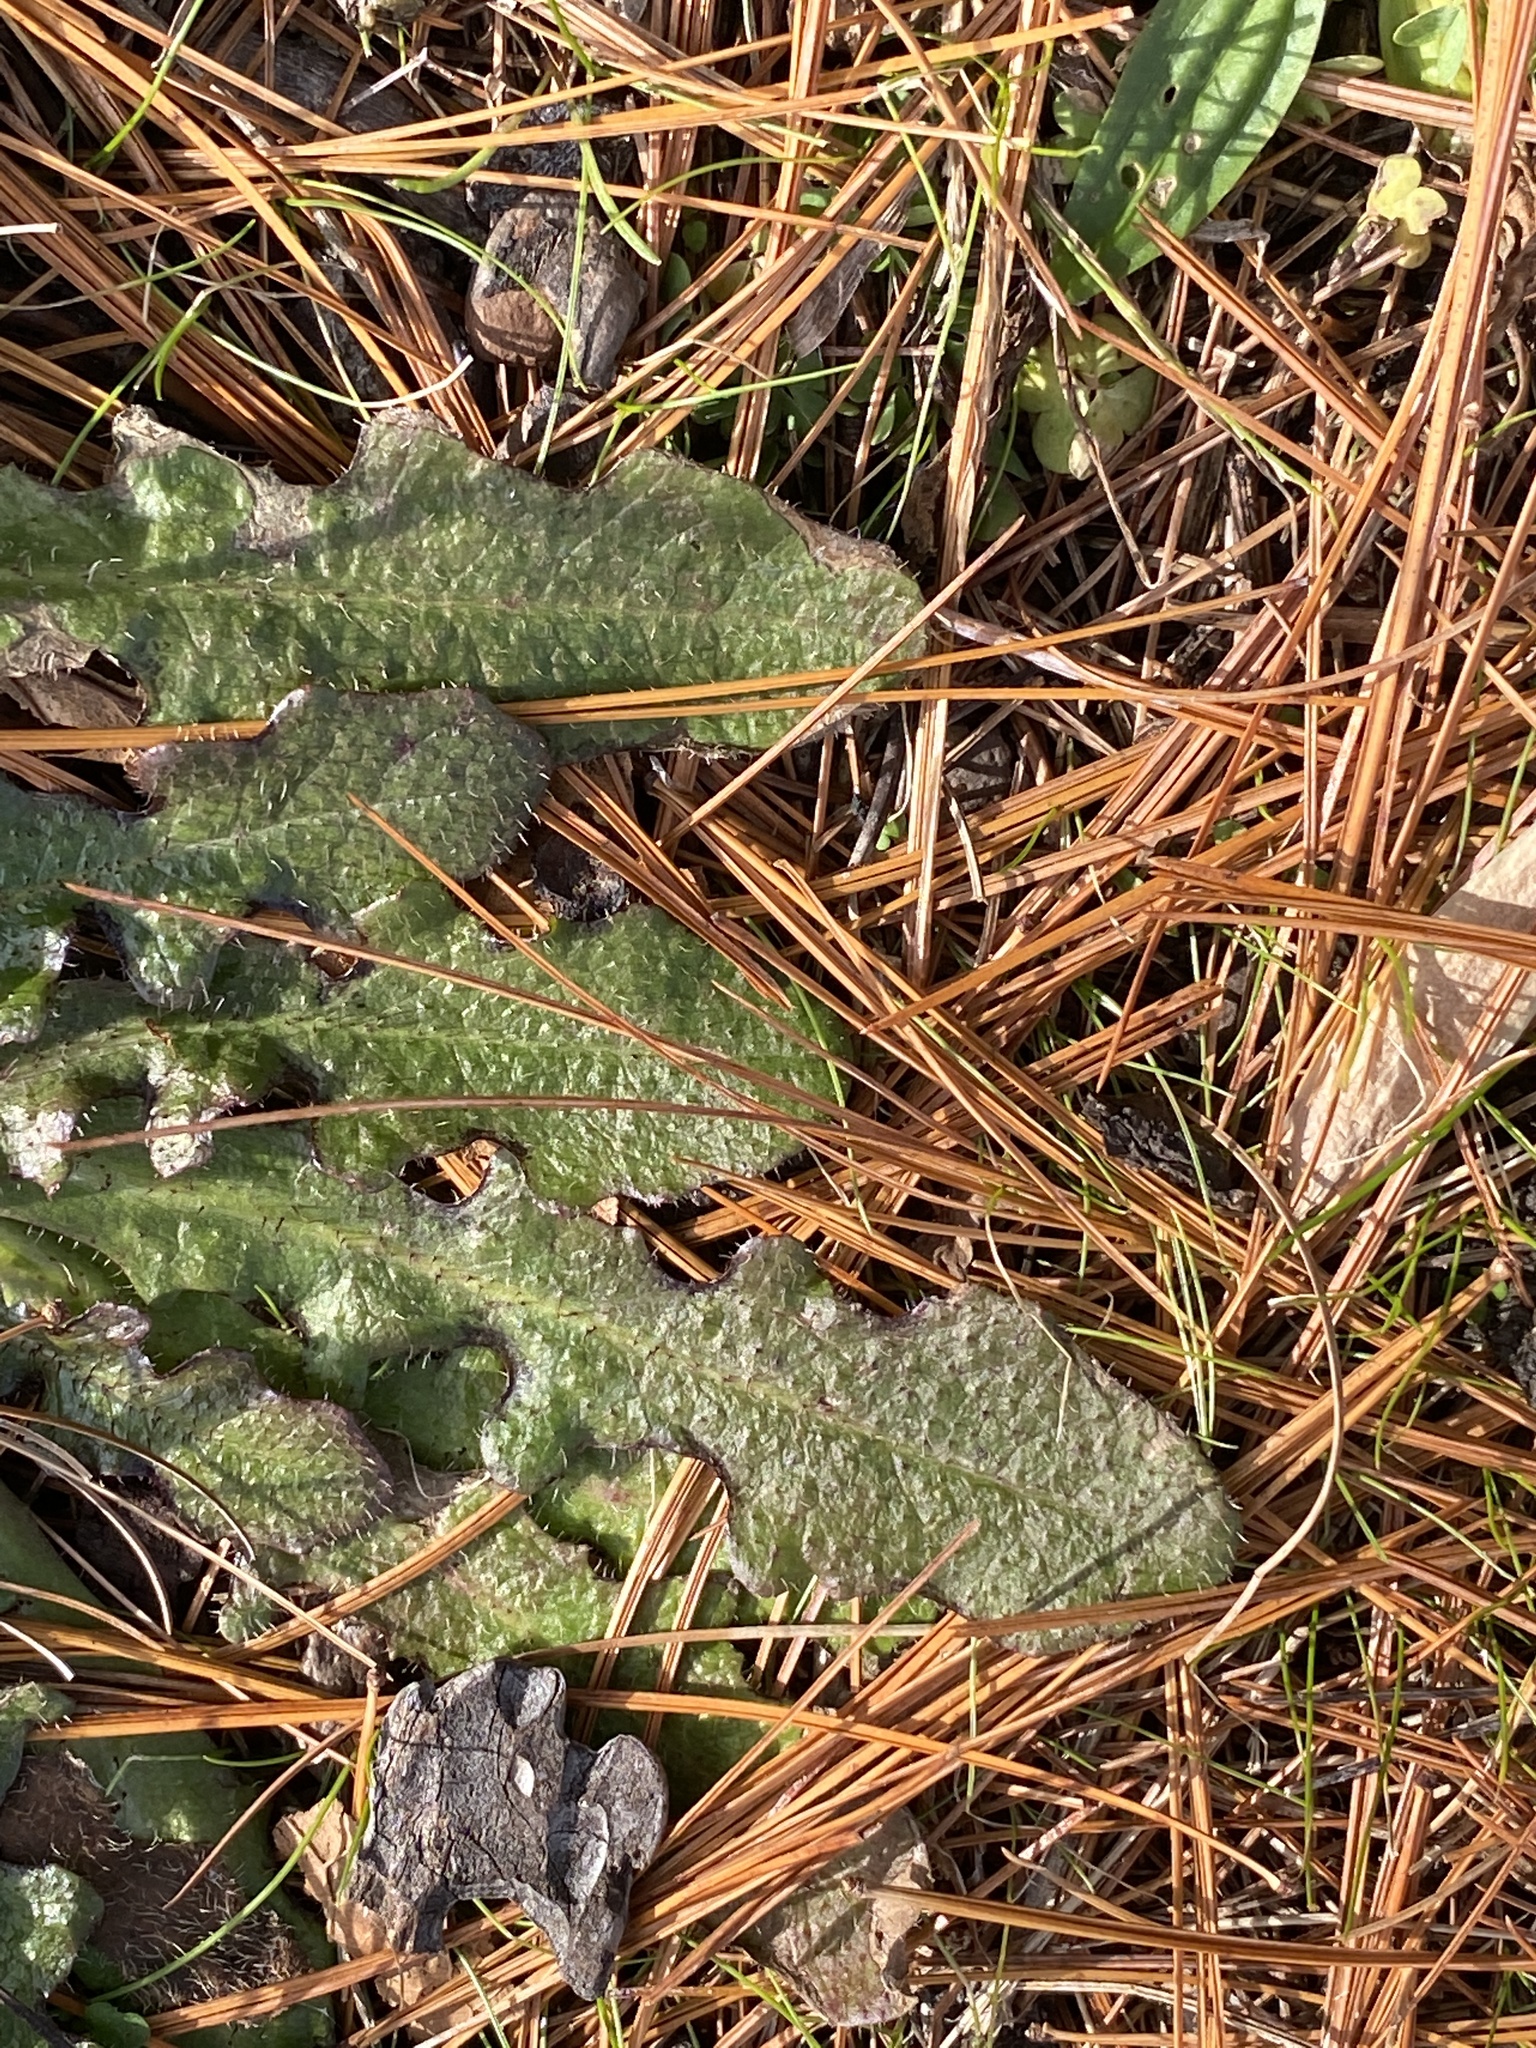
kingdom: Plantae
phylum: Tracheophyta
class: Magnoliopsida
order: Asterales
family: Asteraceae
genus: Hypochaeris
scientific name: Hypochaeris radicata
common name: Flatweed
